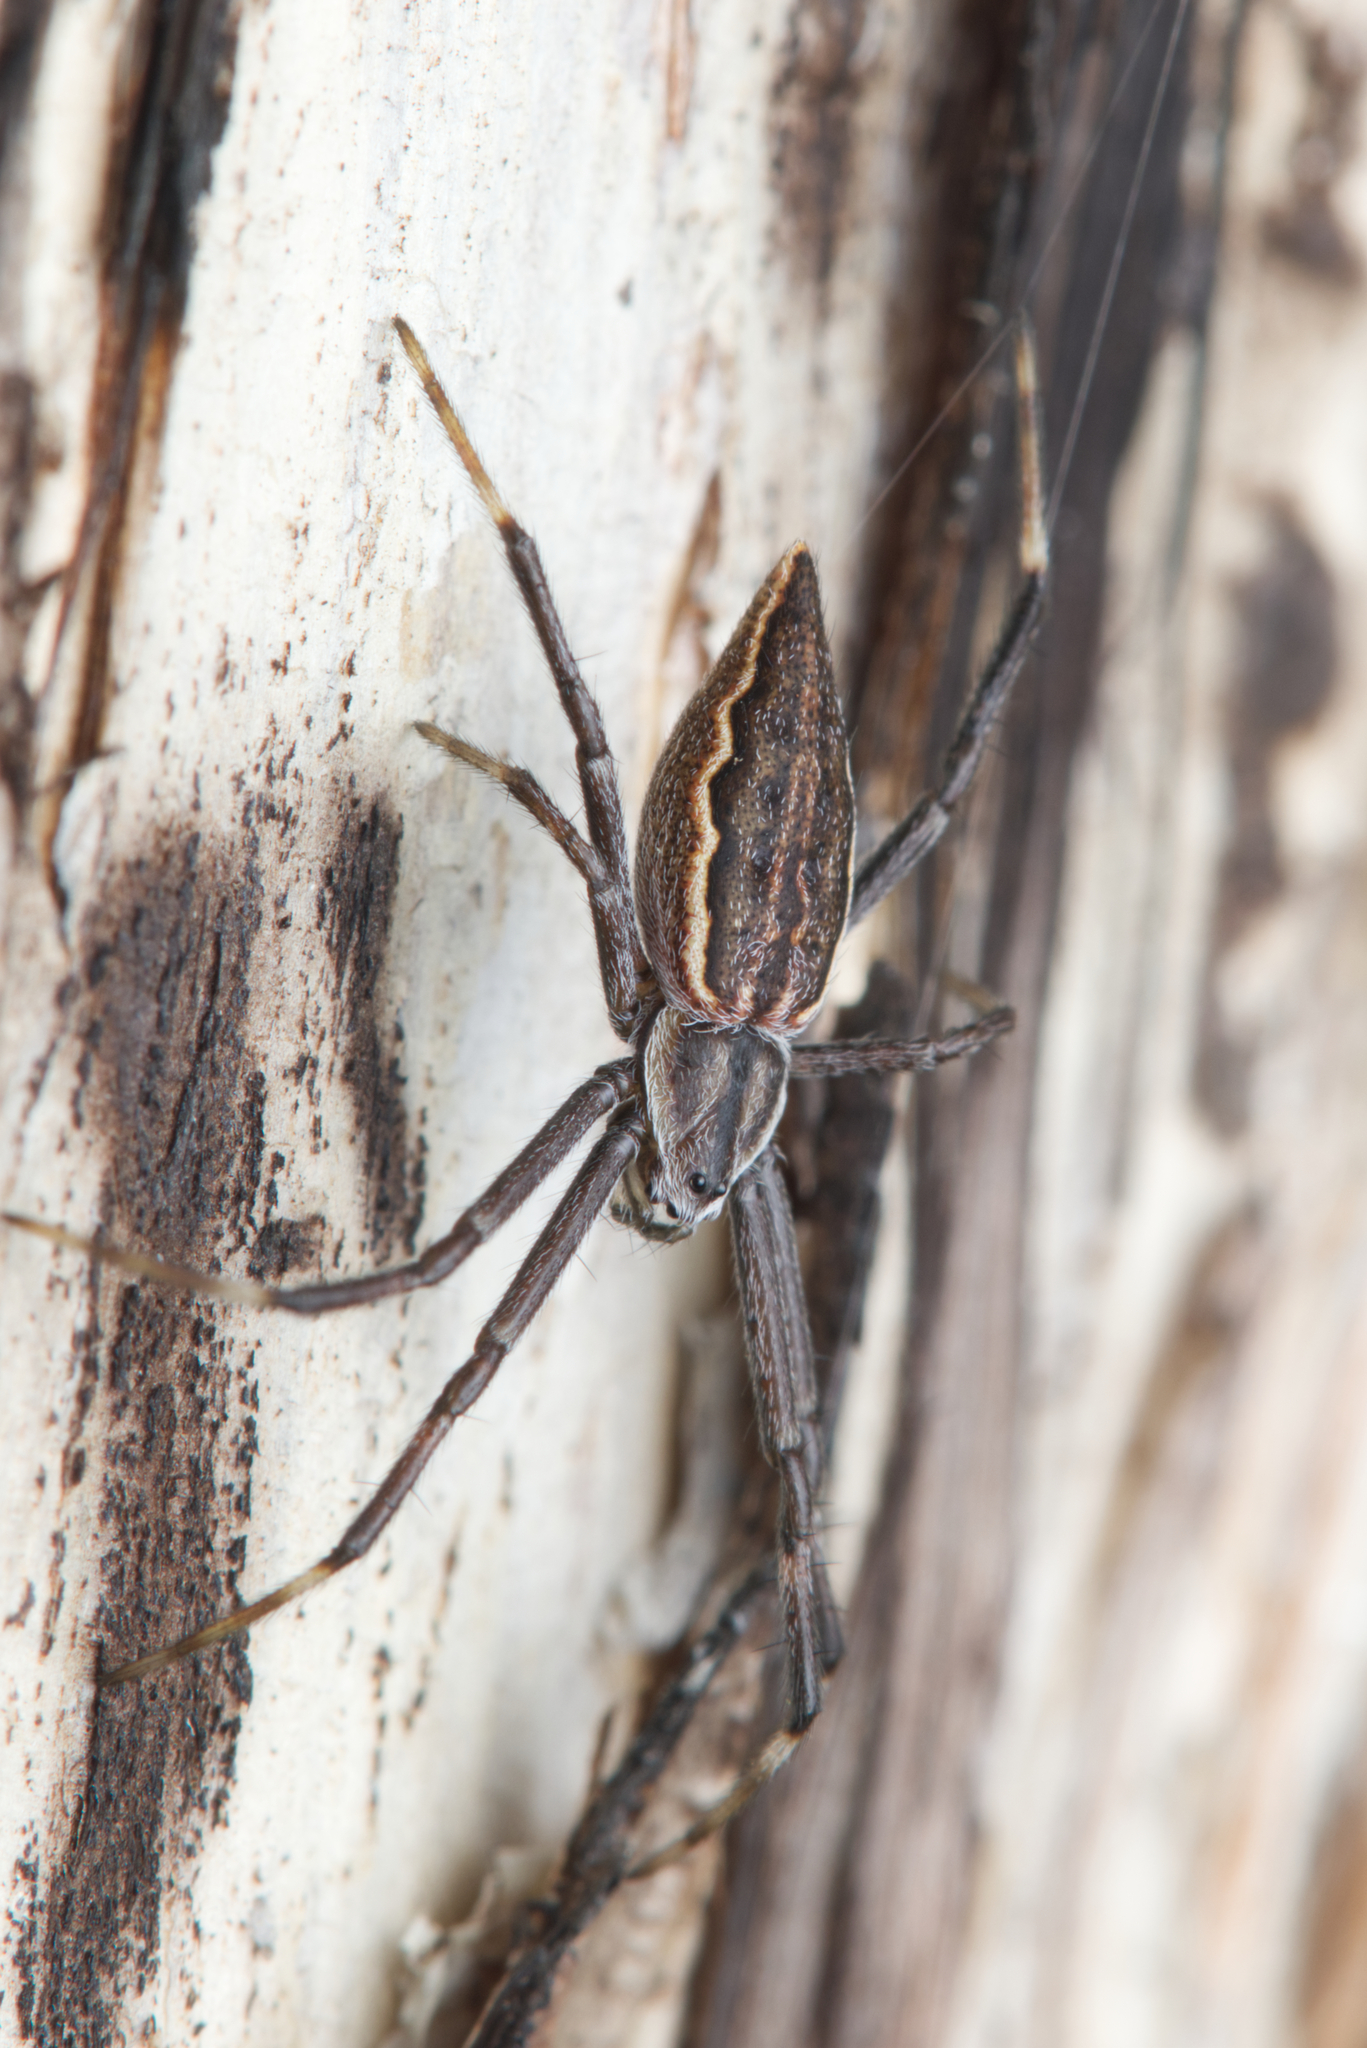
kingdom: Animalia
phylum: Arthropoda
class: Arachnida
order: Araneae
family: Araneidae
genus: Argiope
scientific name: Argiope ocyaloides
